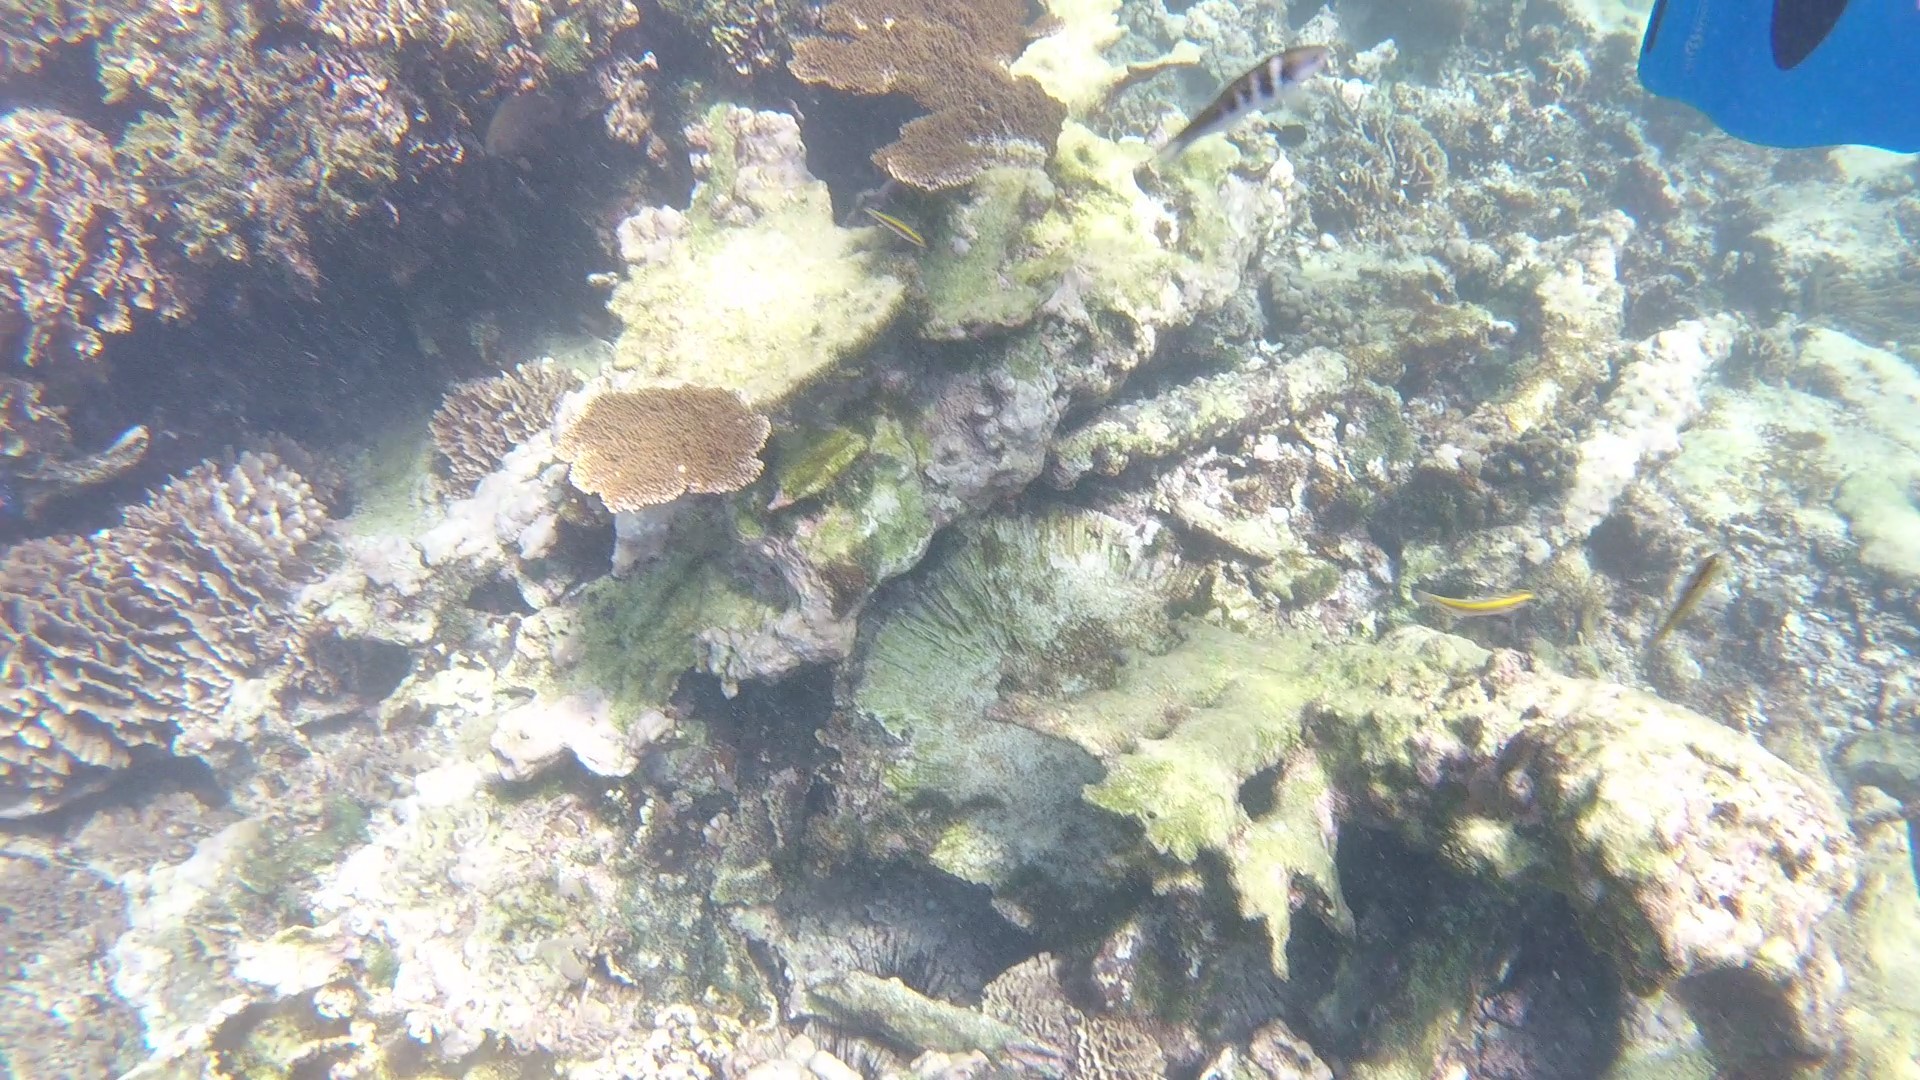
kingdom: Animalia
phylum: Chordata
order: Perciformes
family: Labridae
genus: Thalassoma
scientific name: Thalassoma bifasciatum
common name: Bluehead wrasse
